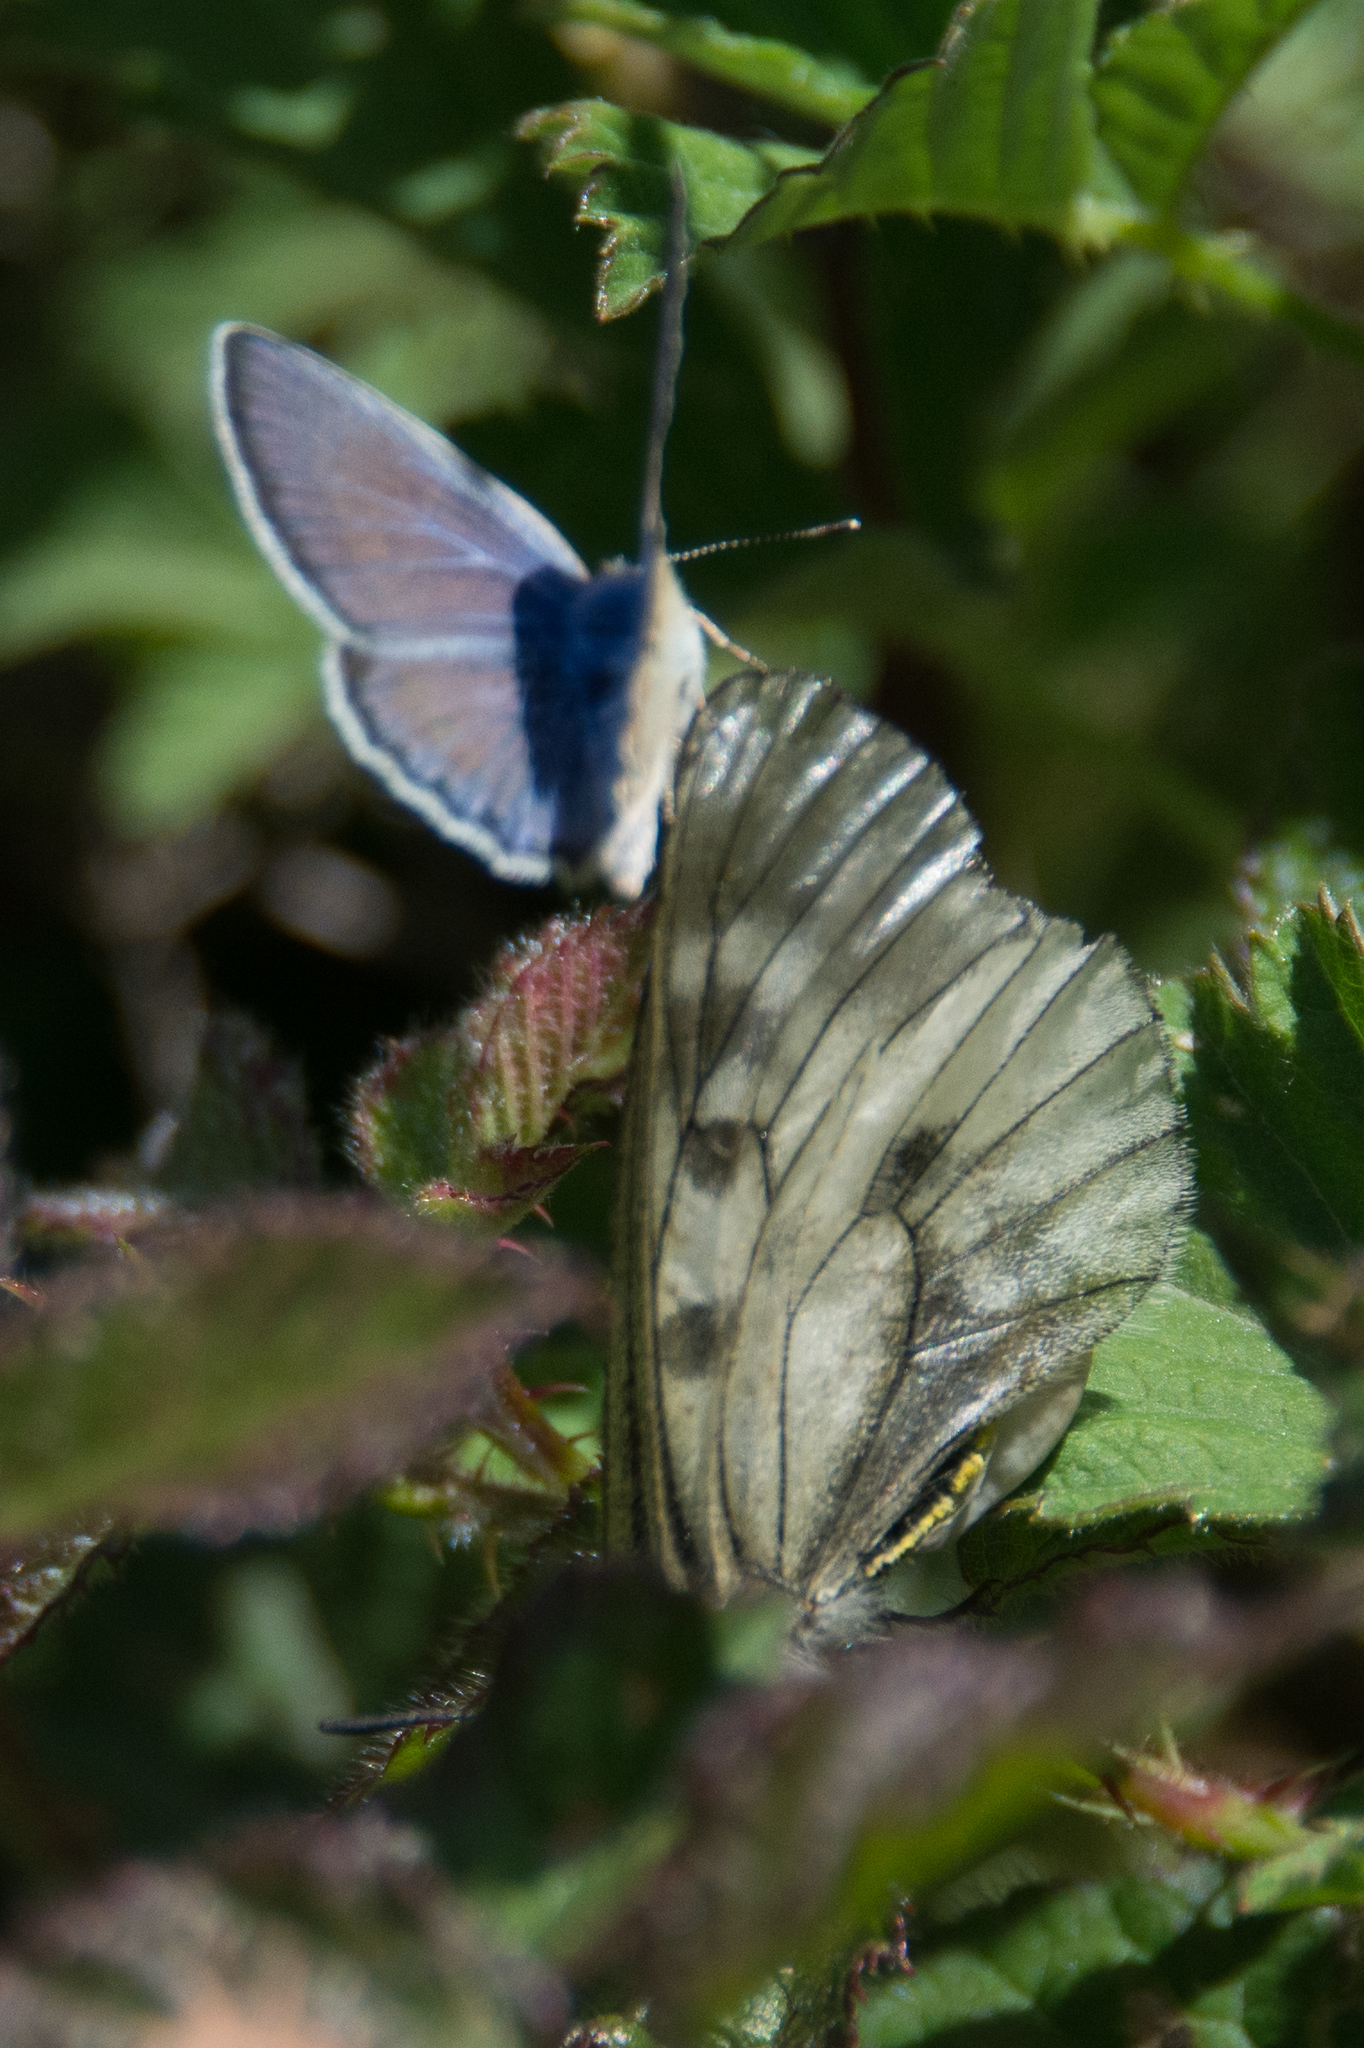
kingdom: Animalia
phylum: Arthropoda
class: Insecta
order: Lepidoptera
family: Papilionidae
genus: Parnassius
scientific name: Parnassius mnemosyne
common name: Clouded apollo
